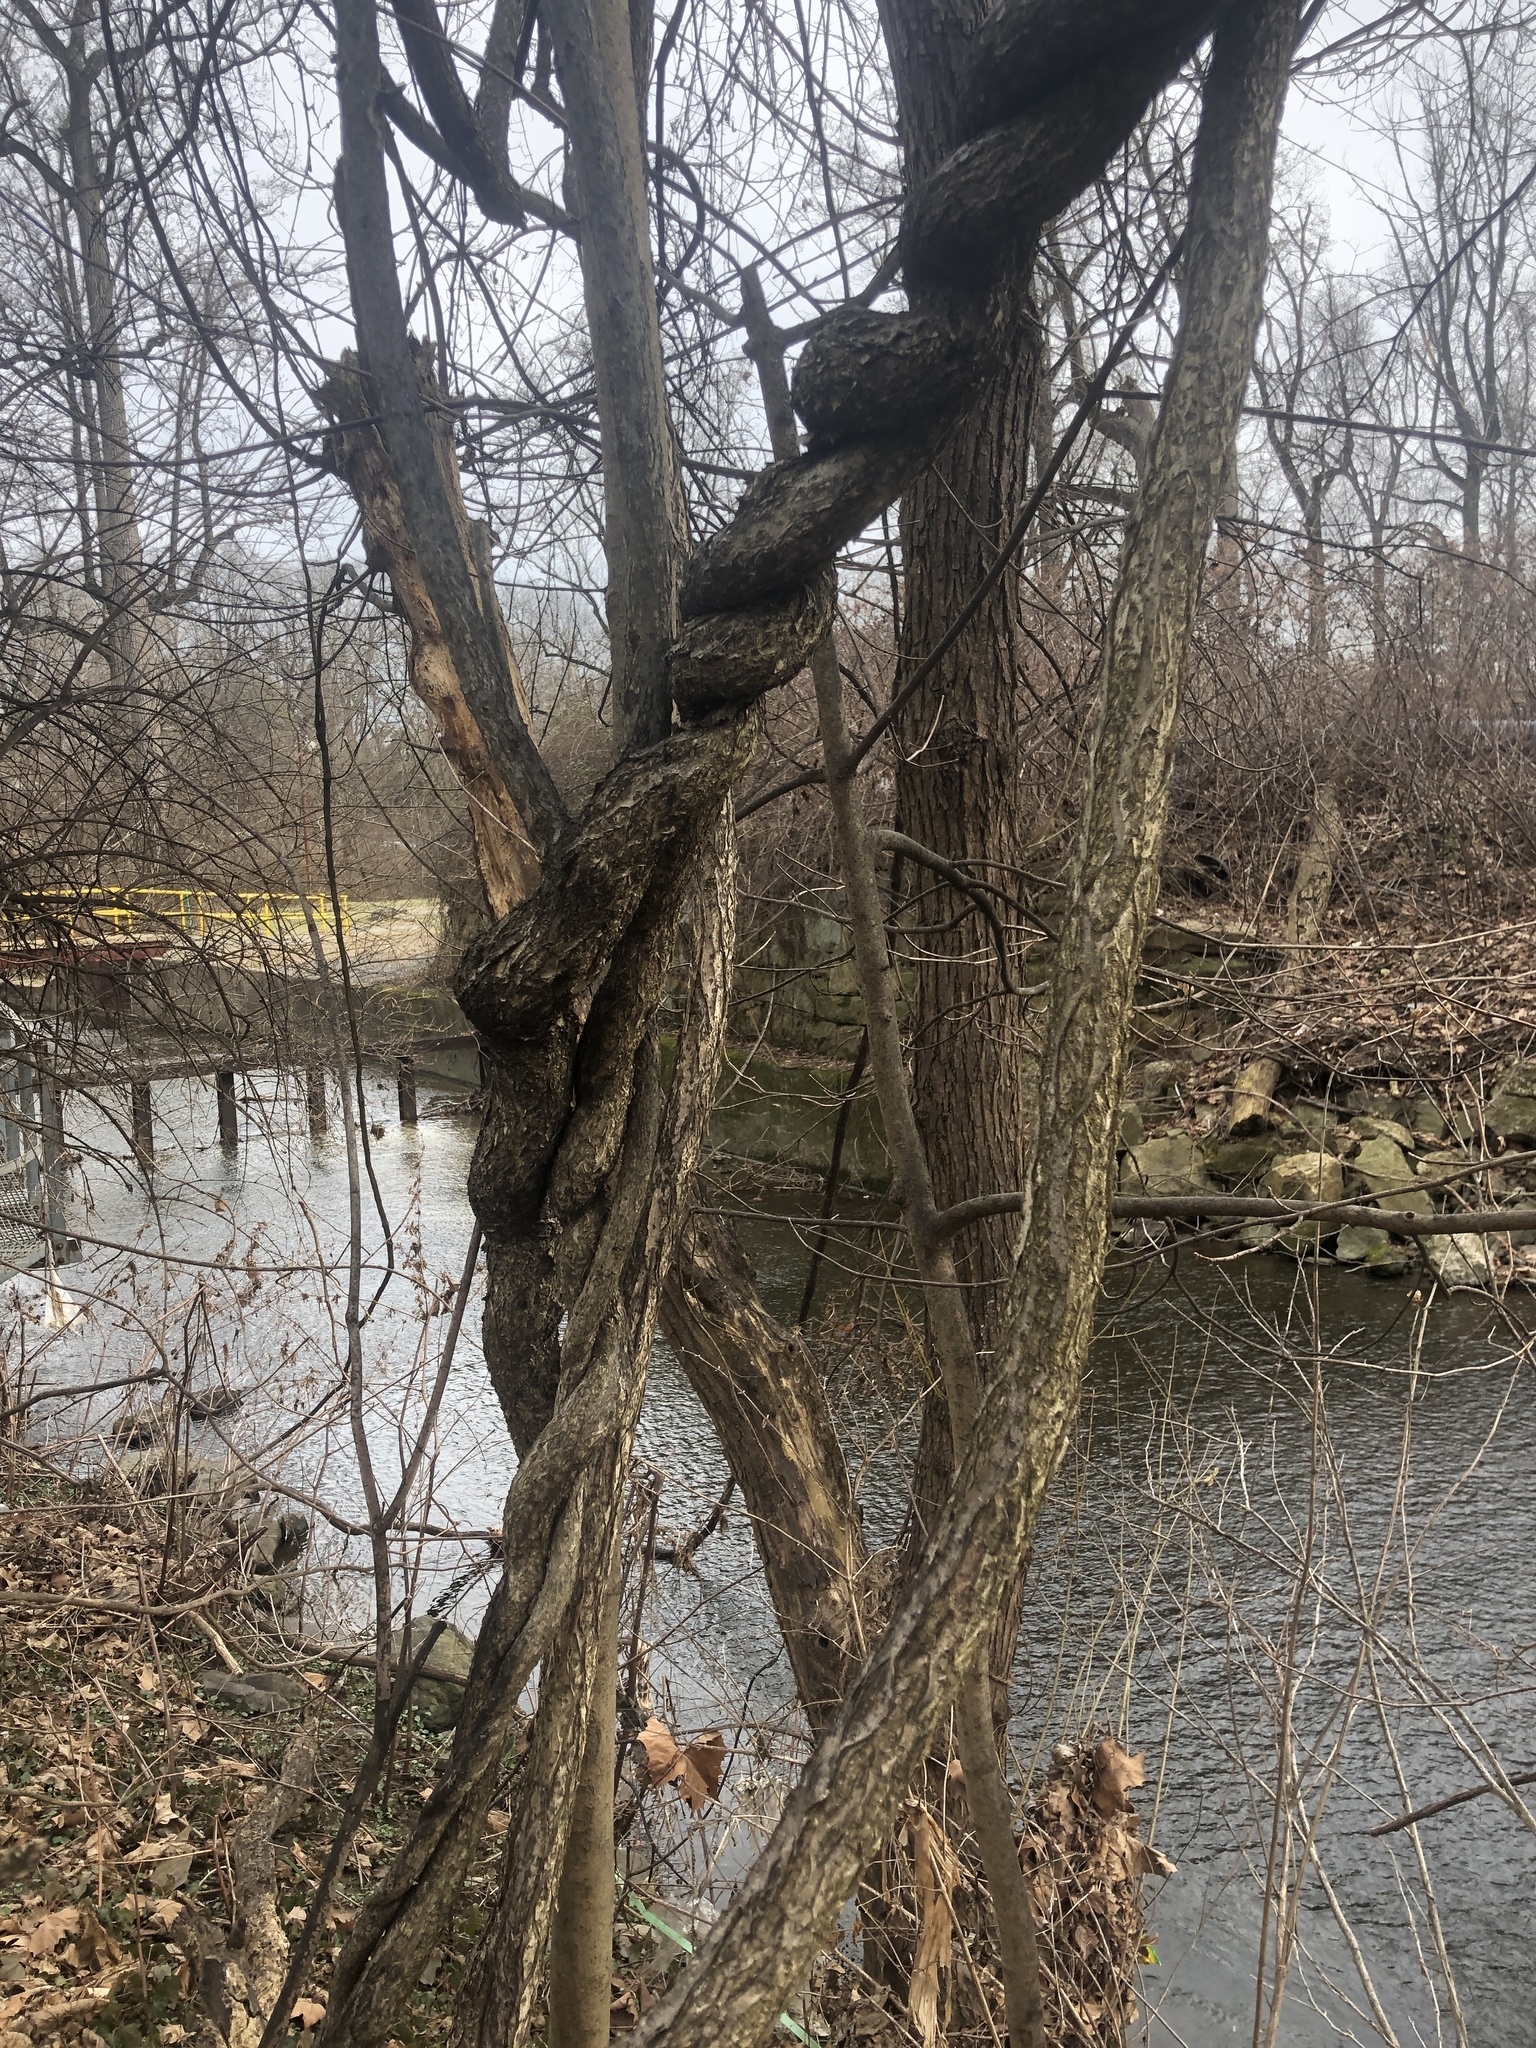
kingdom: Plantae
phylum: Tracheophyta
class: Magnoliopsida
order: Celastrales
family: Celastraceae
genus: Celastrus
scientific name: Celastrus orbiculatus
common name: Oriental bittersweet
